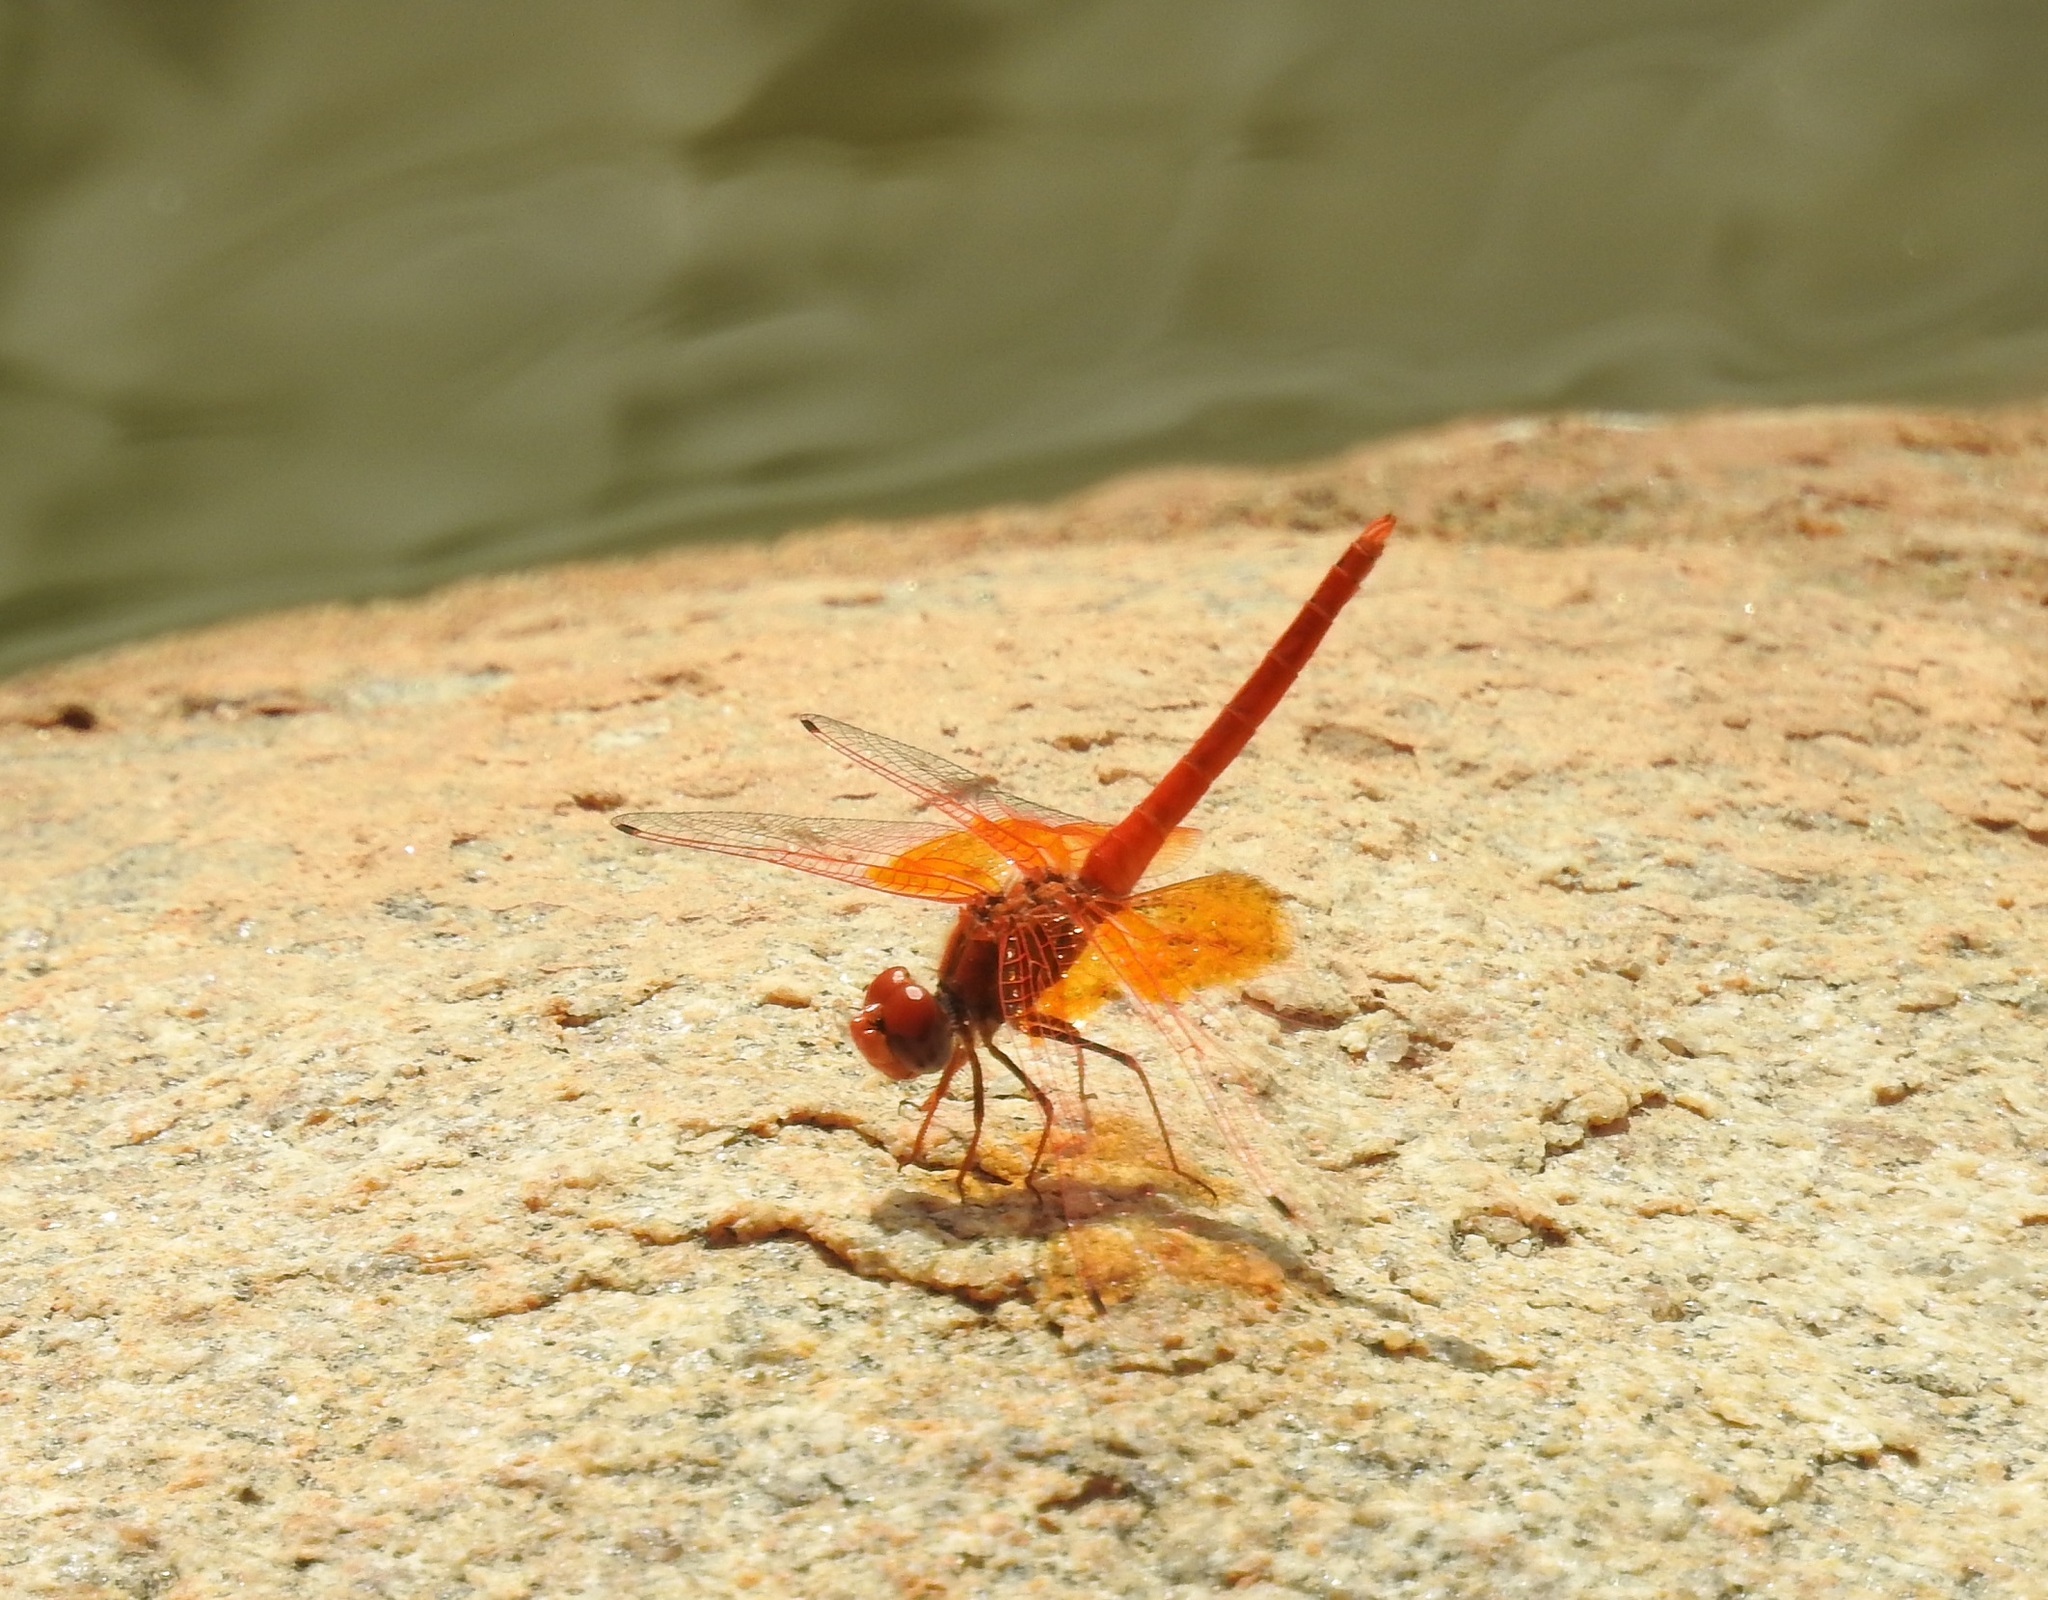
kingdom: Animalia
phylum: Arthropoda
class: Insecta
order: Odonata
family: Libellulidae
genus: Trithemis
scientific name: Trithemis kirbyi
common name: Kirby's dropwing
